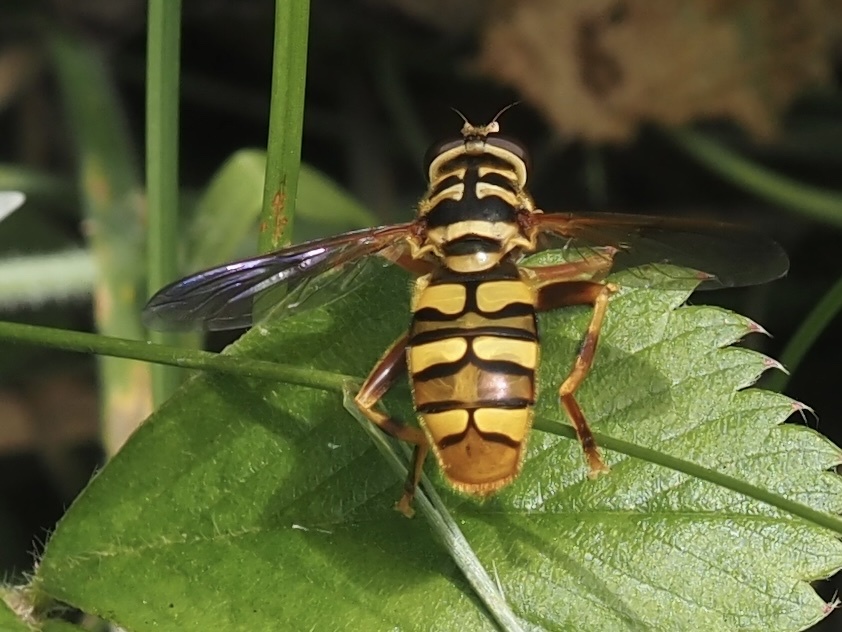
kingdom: Animalia
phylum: Arthropoda
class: Insecta
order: Diptera
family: Syrphidae
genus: Milesia
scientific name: Milesia virginiensis
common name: Virginia giant
